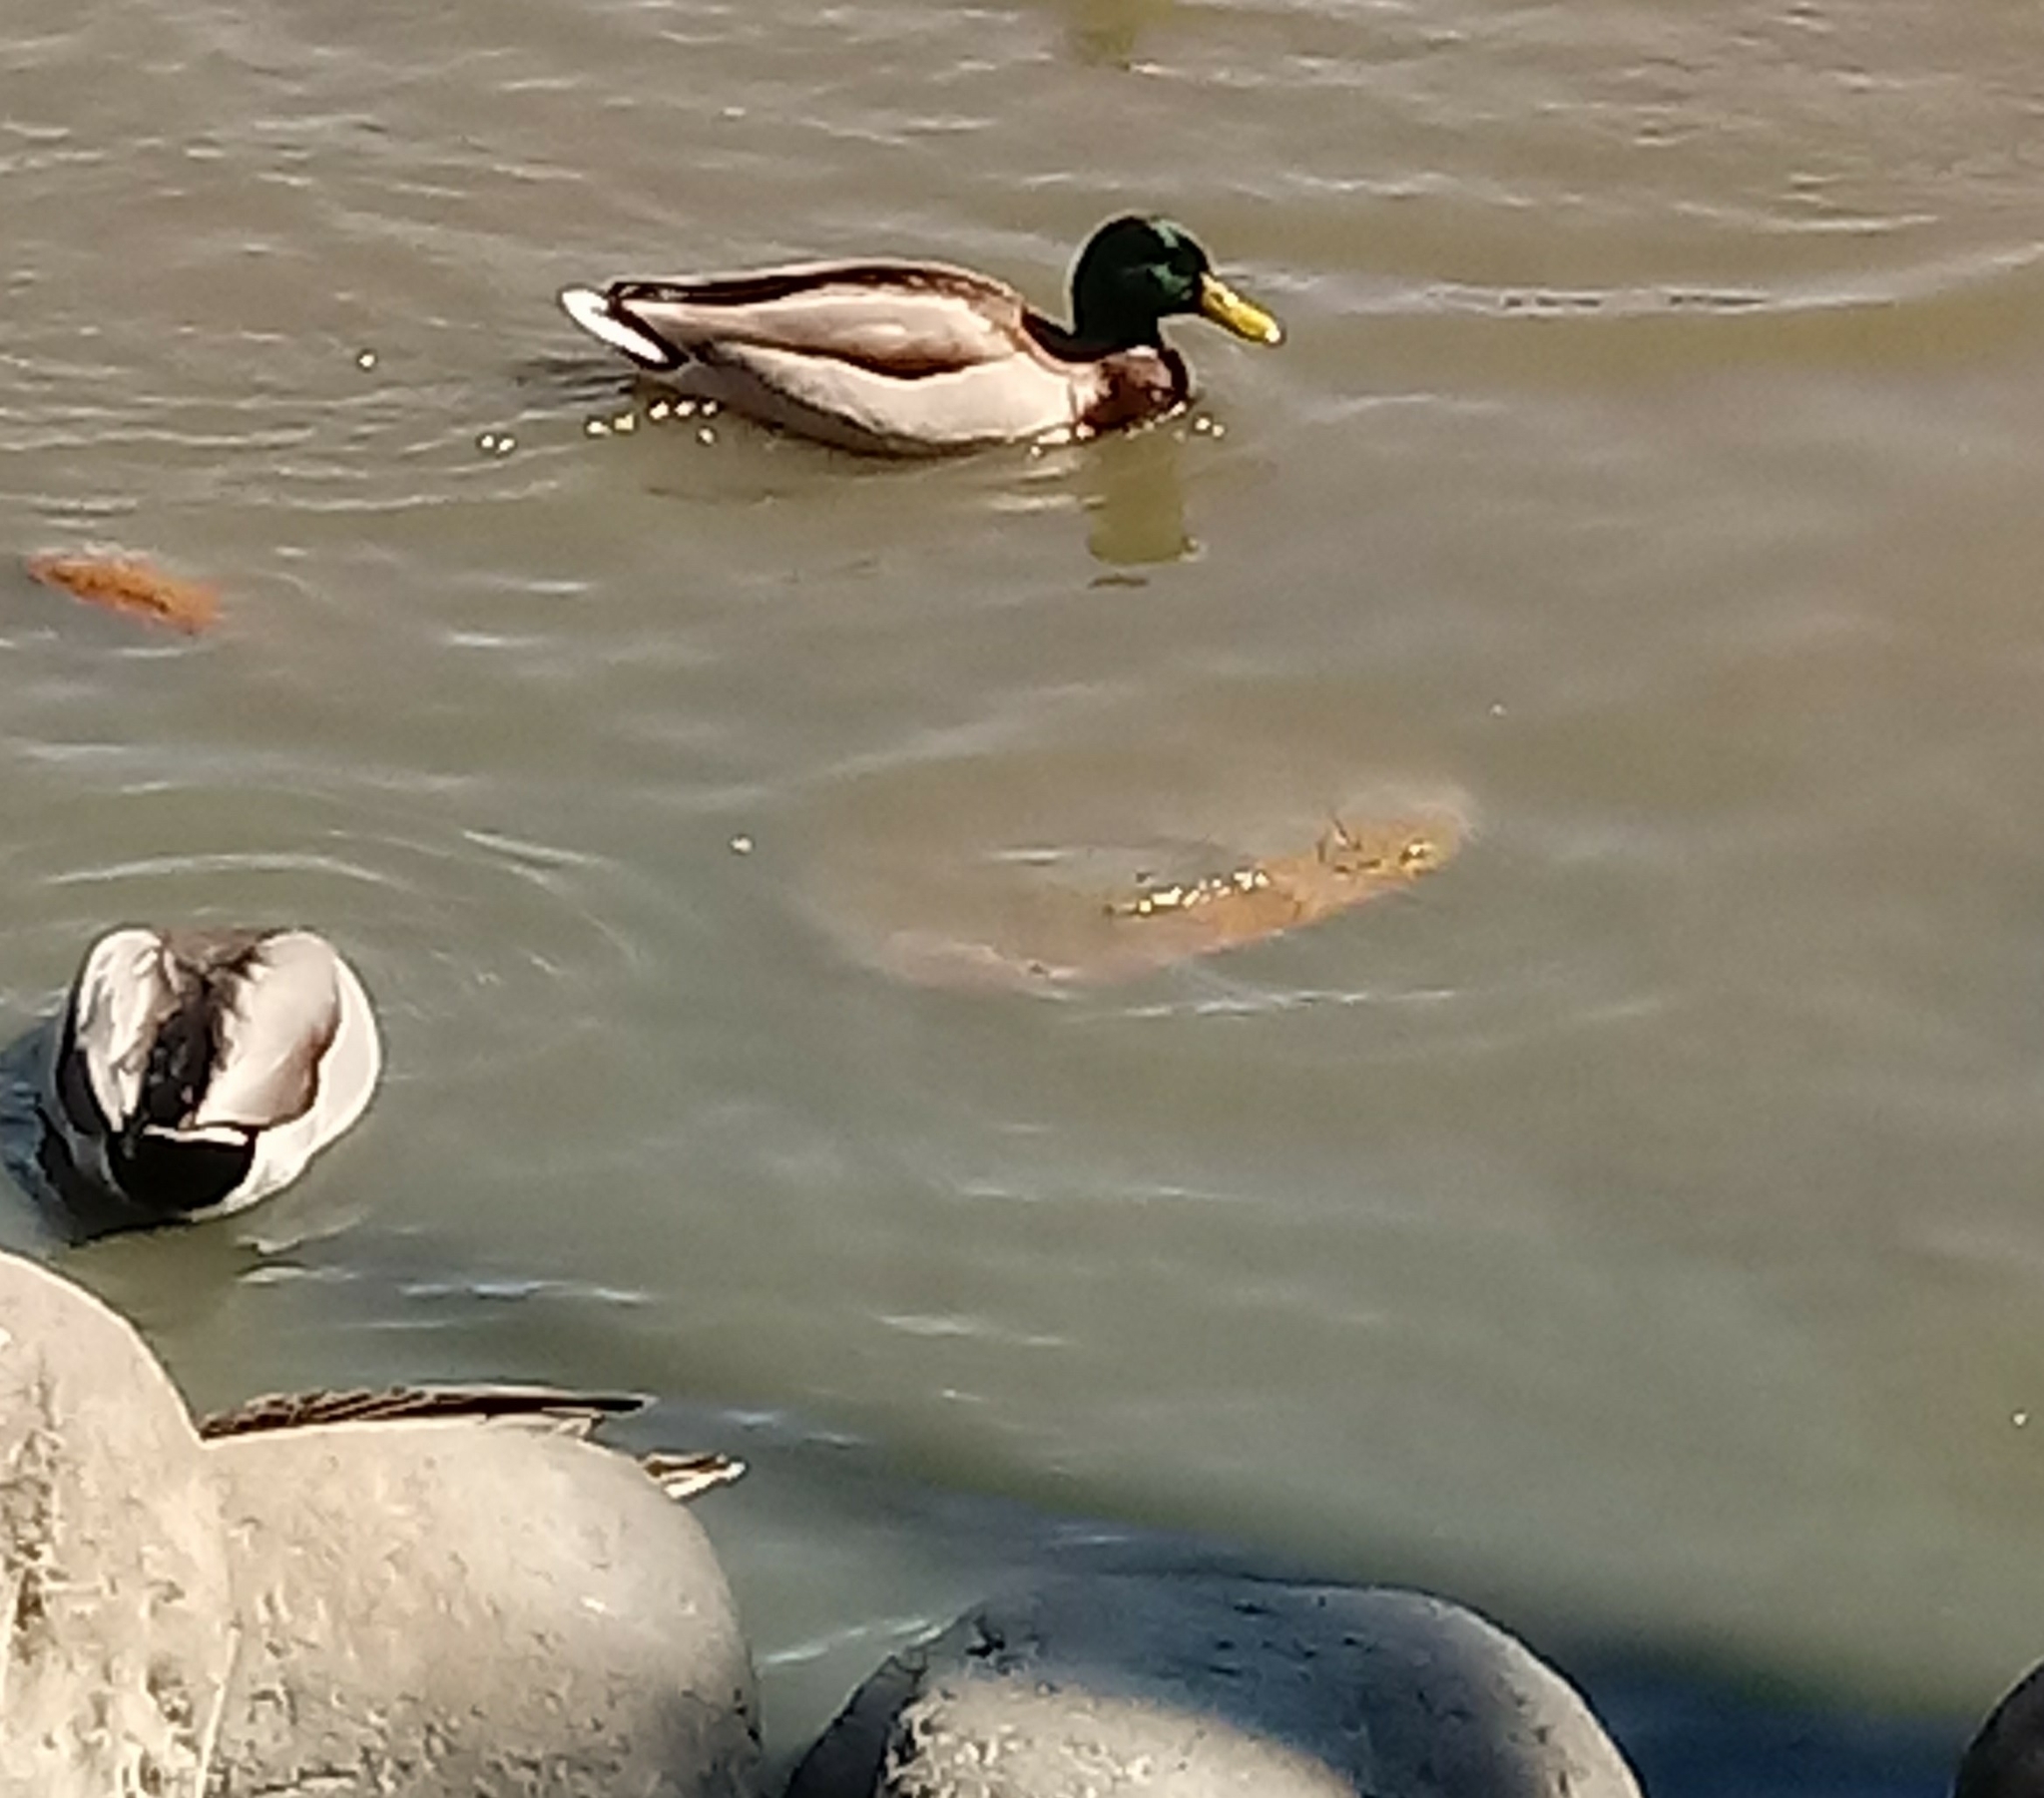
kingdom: Animalia
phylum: Chordata
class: Aves
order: Anseriformes
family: Anatidae
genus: Anas
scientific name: Anas platyrhynchos
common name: Mallard
